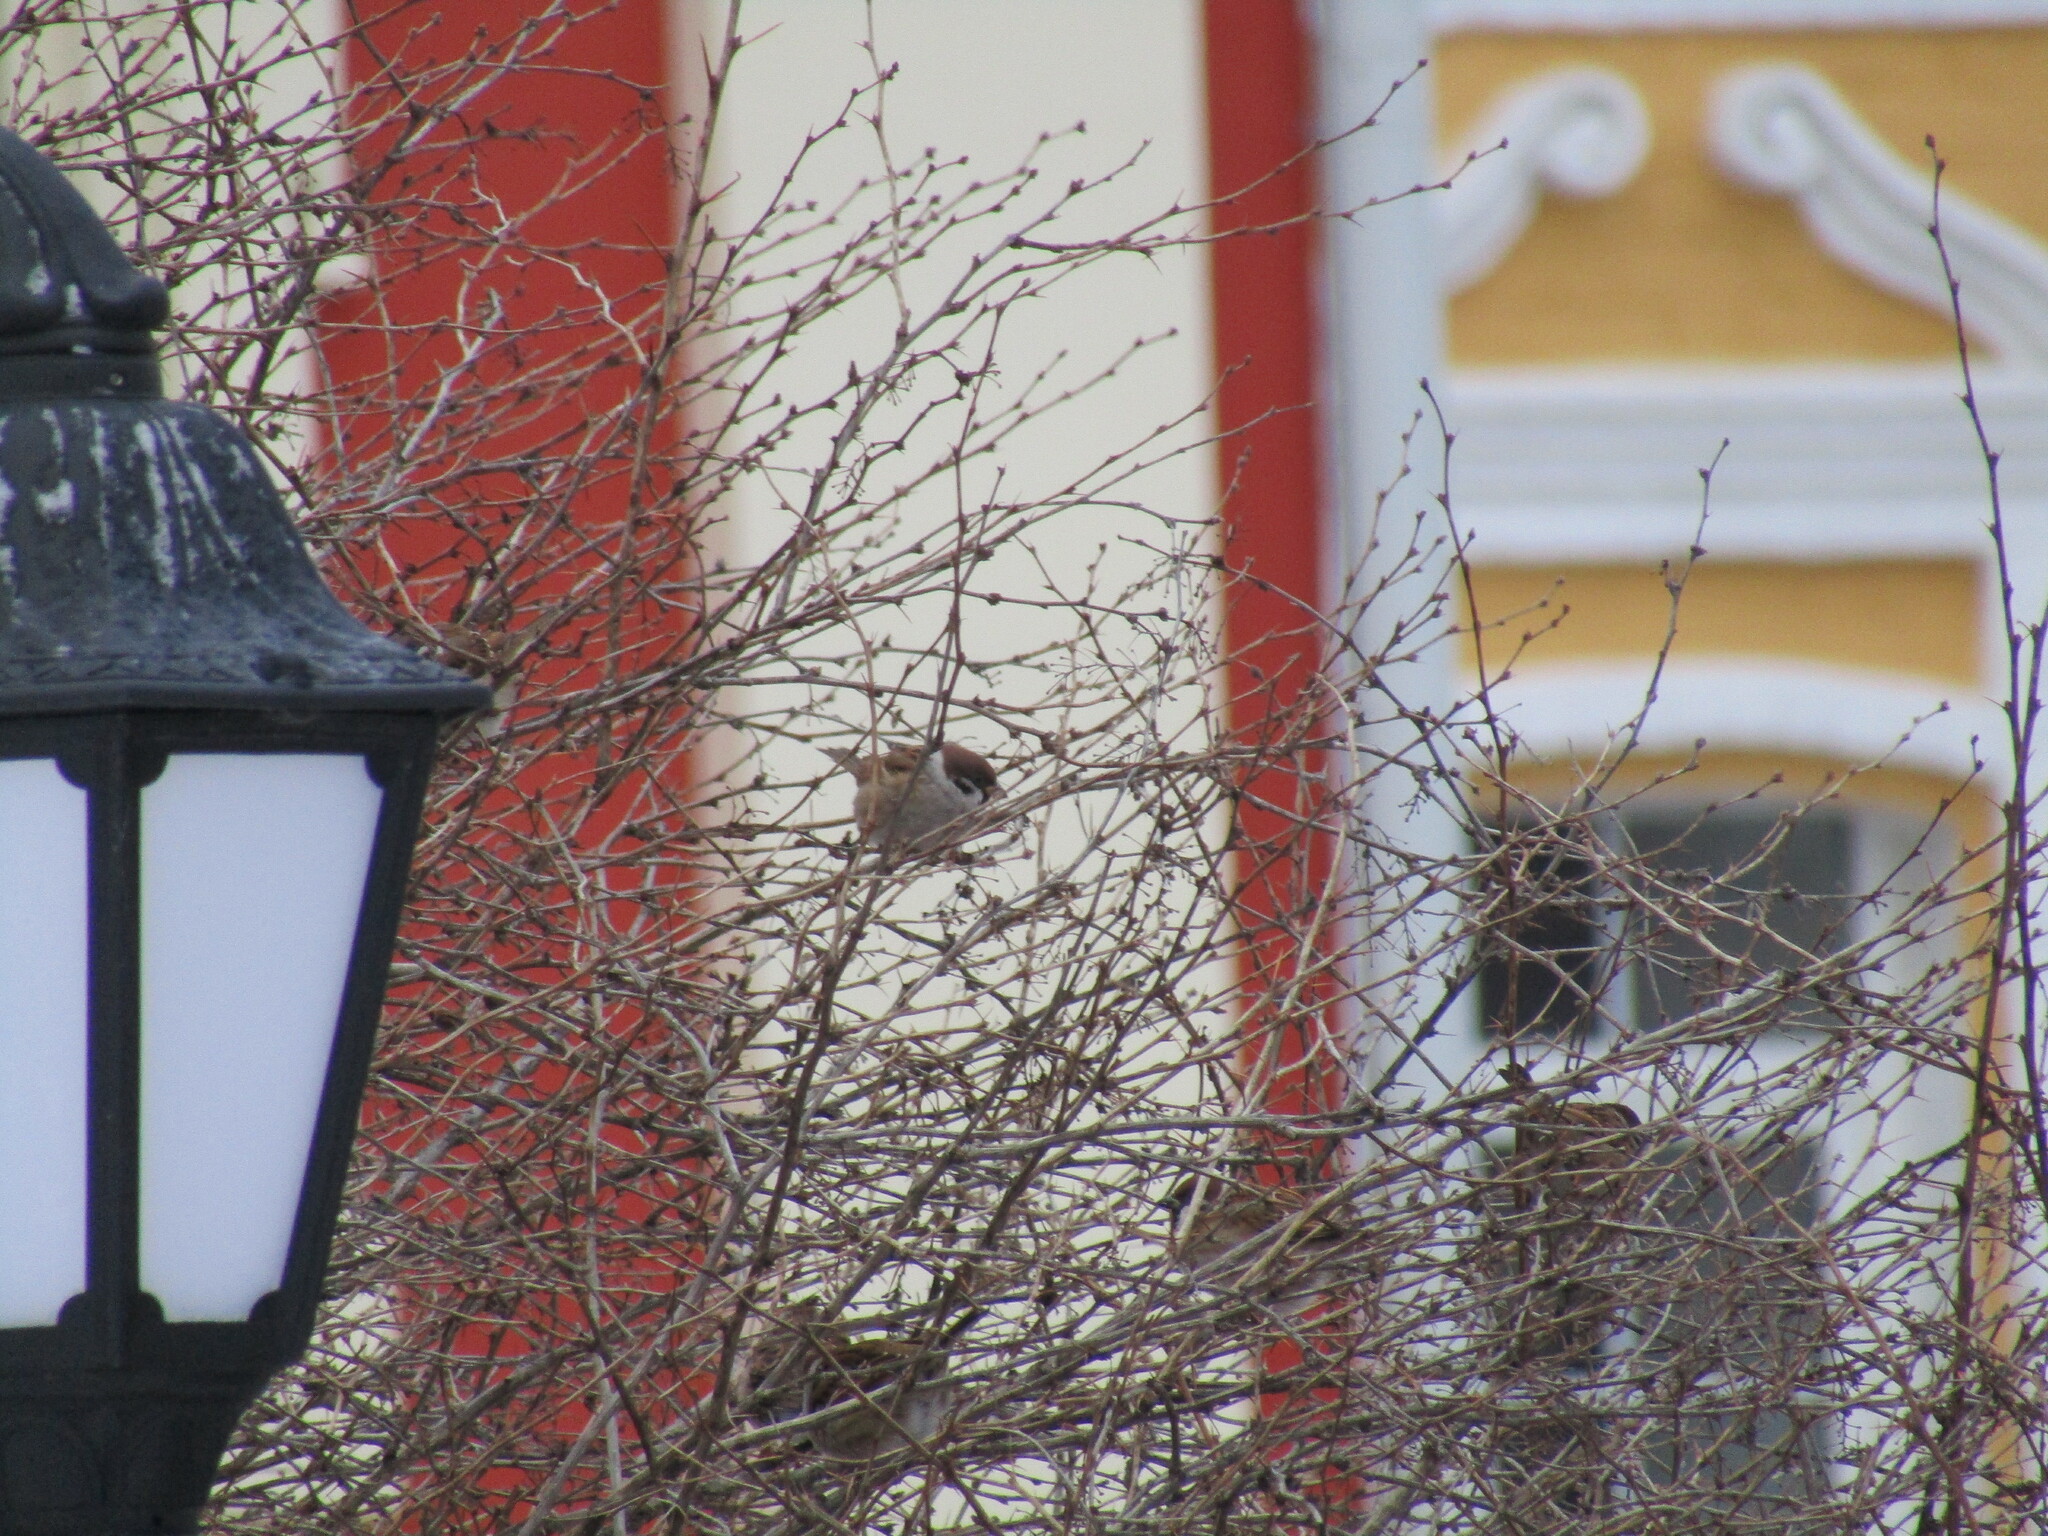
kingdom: Animalia
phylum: Chordata
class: Aves
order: Passeriformes
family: Passeridae
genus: Passer
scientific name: Passer montanus
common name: Eurasian tree sparrow
